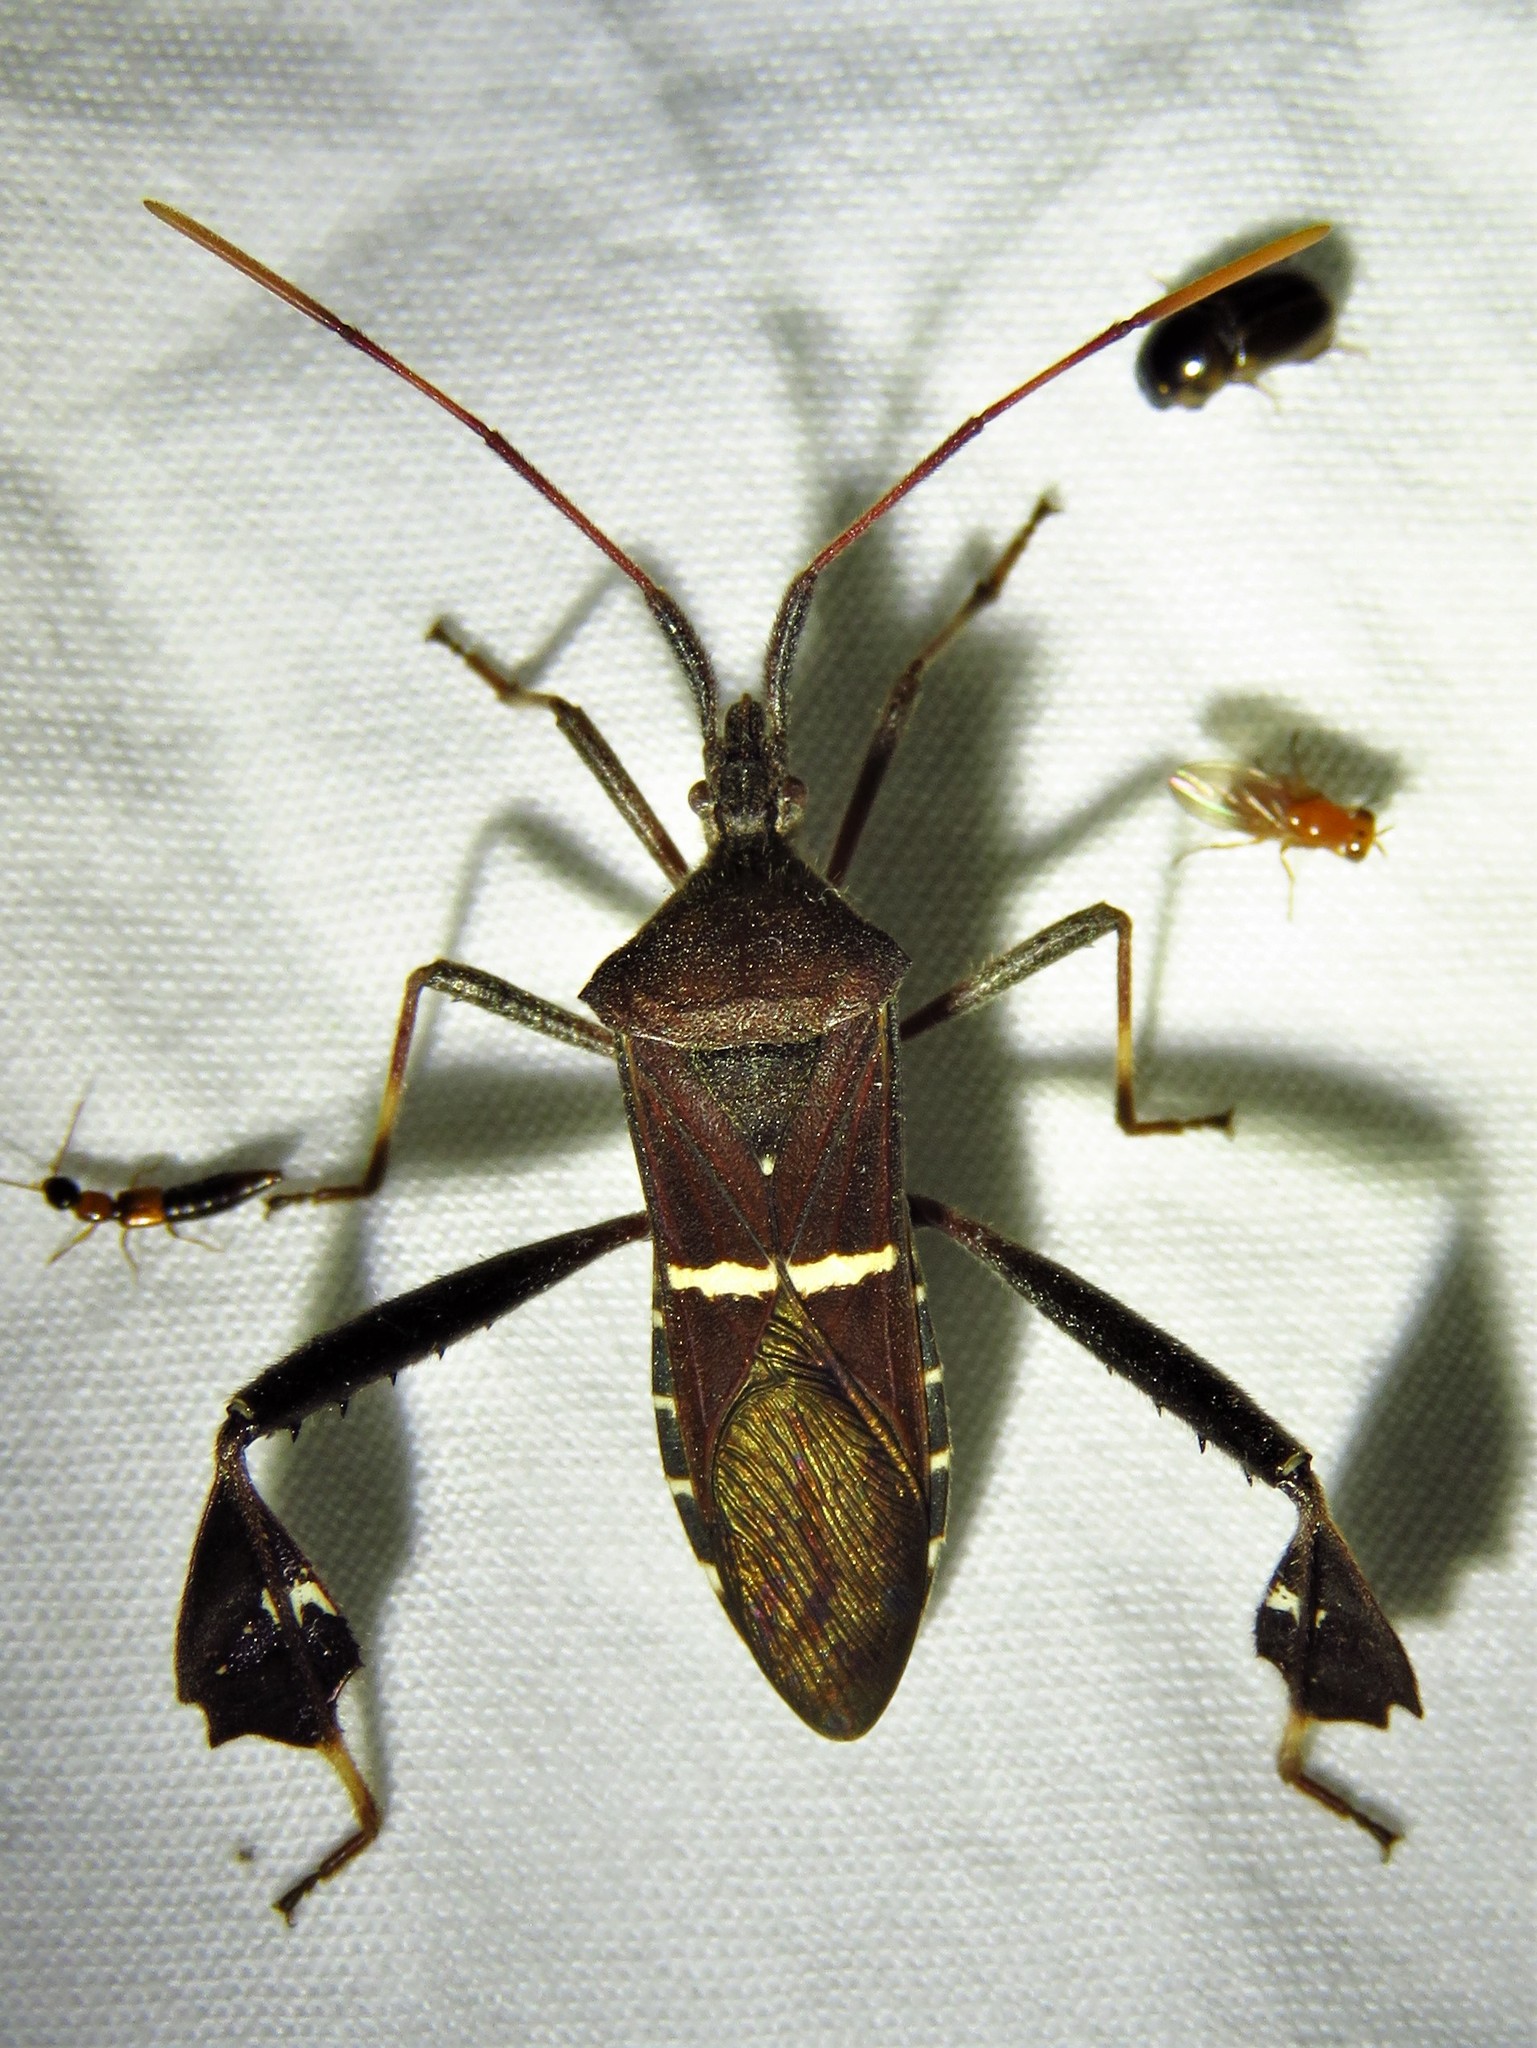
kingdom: Animalia
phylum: Arthropoda
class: Insecta
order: Hemiptera
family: Coreidae
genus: Leptoglossus
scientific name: Leptoglossus phyllopus
